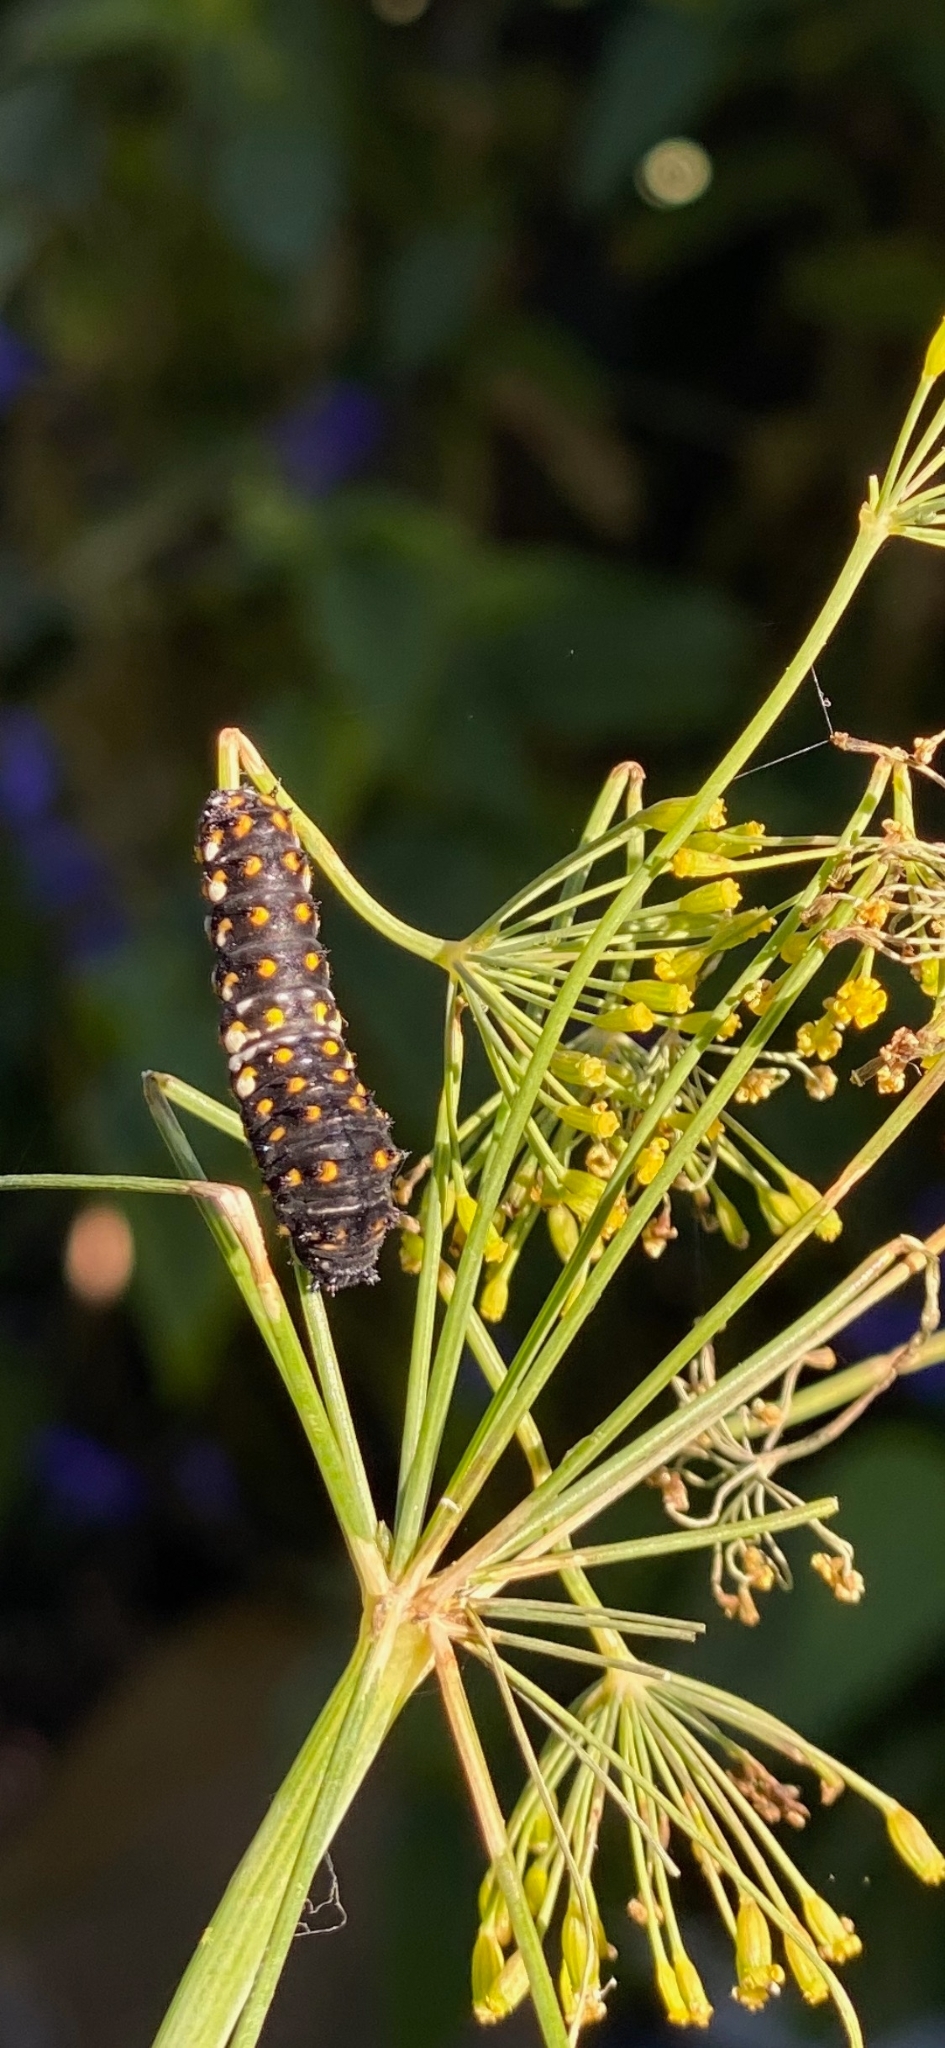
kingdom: Animalia
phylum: Arthropoda
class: Insecta
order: Lepidoptera
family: Papilionidae
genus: Papilio
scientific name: Papilio polyxenes
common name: Black swallowtail
